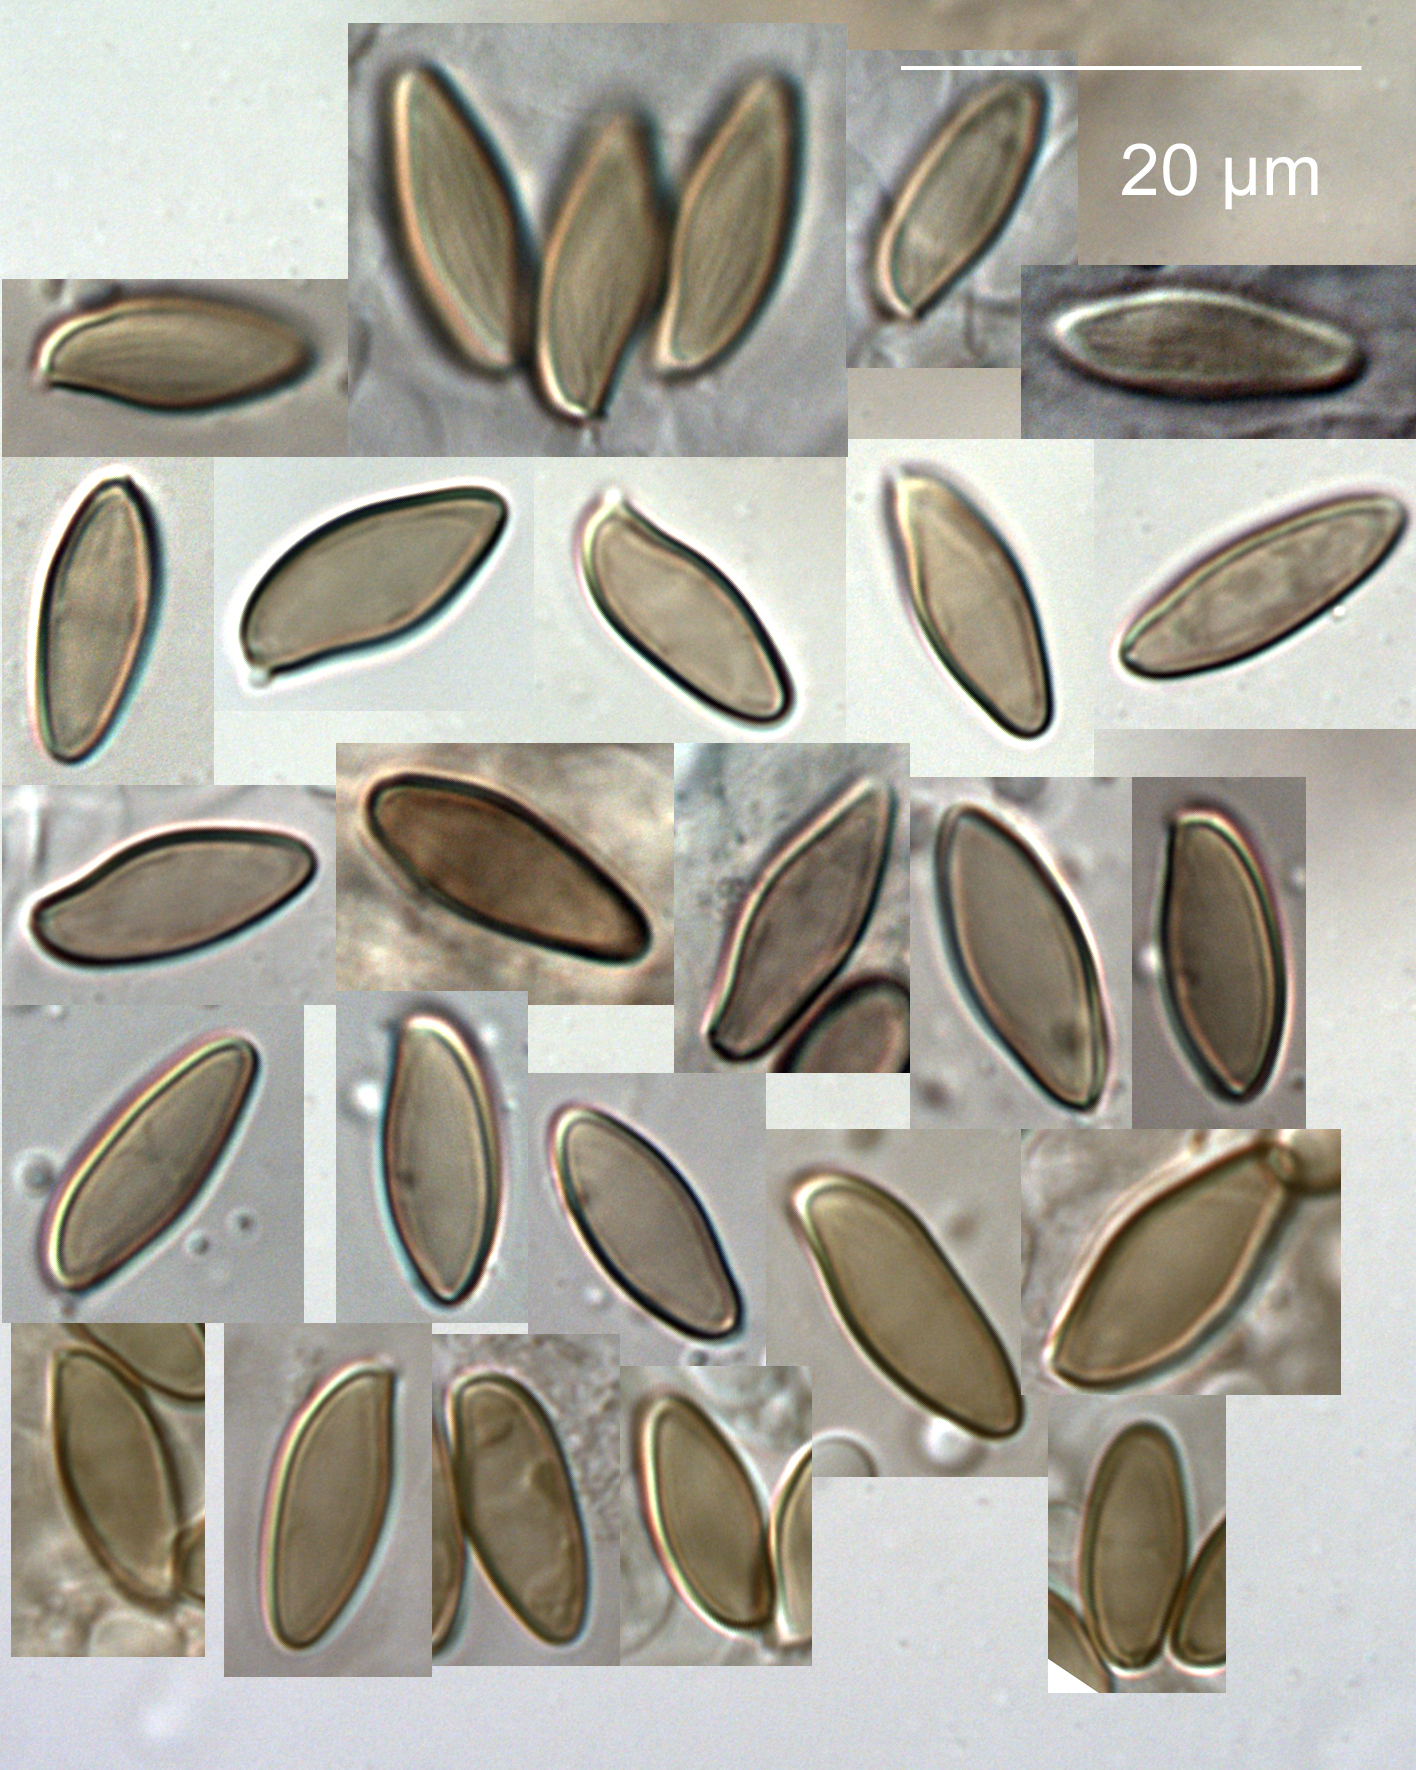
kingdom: Fungi
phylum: Basidiomycota
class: Agaricomycetes
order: Boletales
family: Boletaceae
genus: Xerocomellus
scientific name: Xerocomellus cisalpinus
